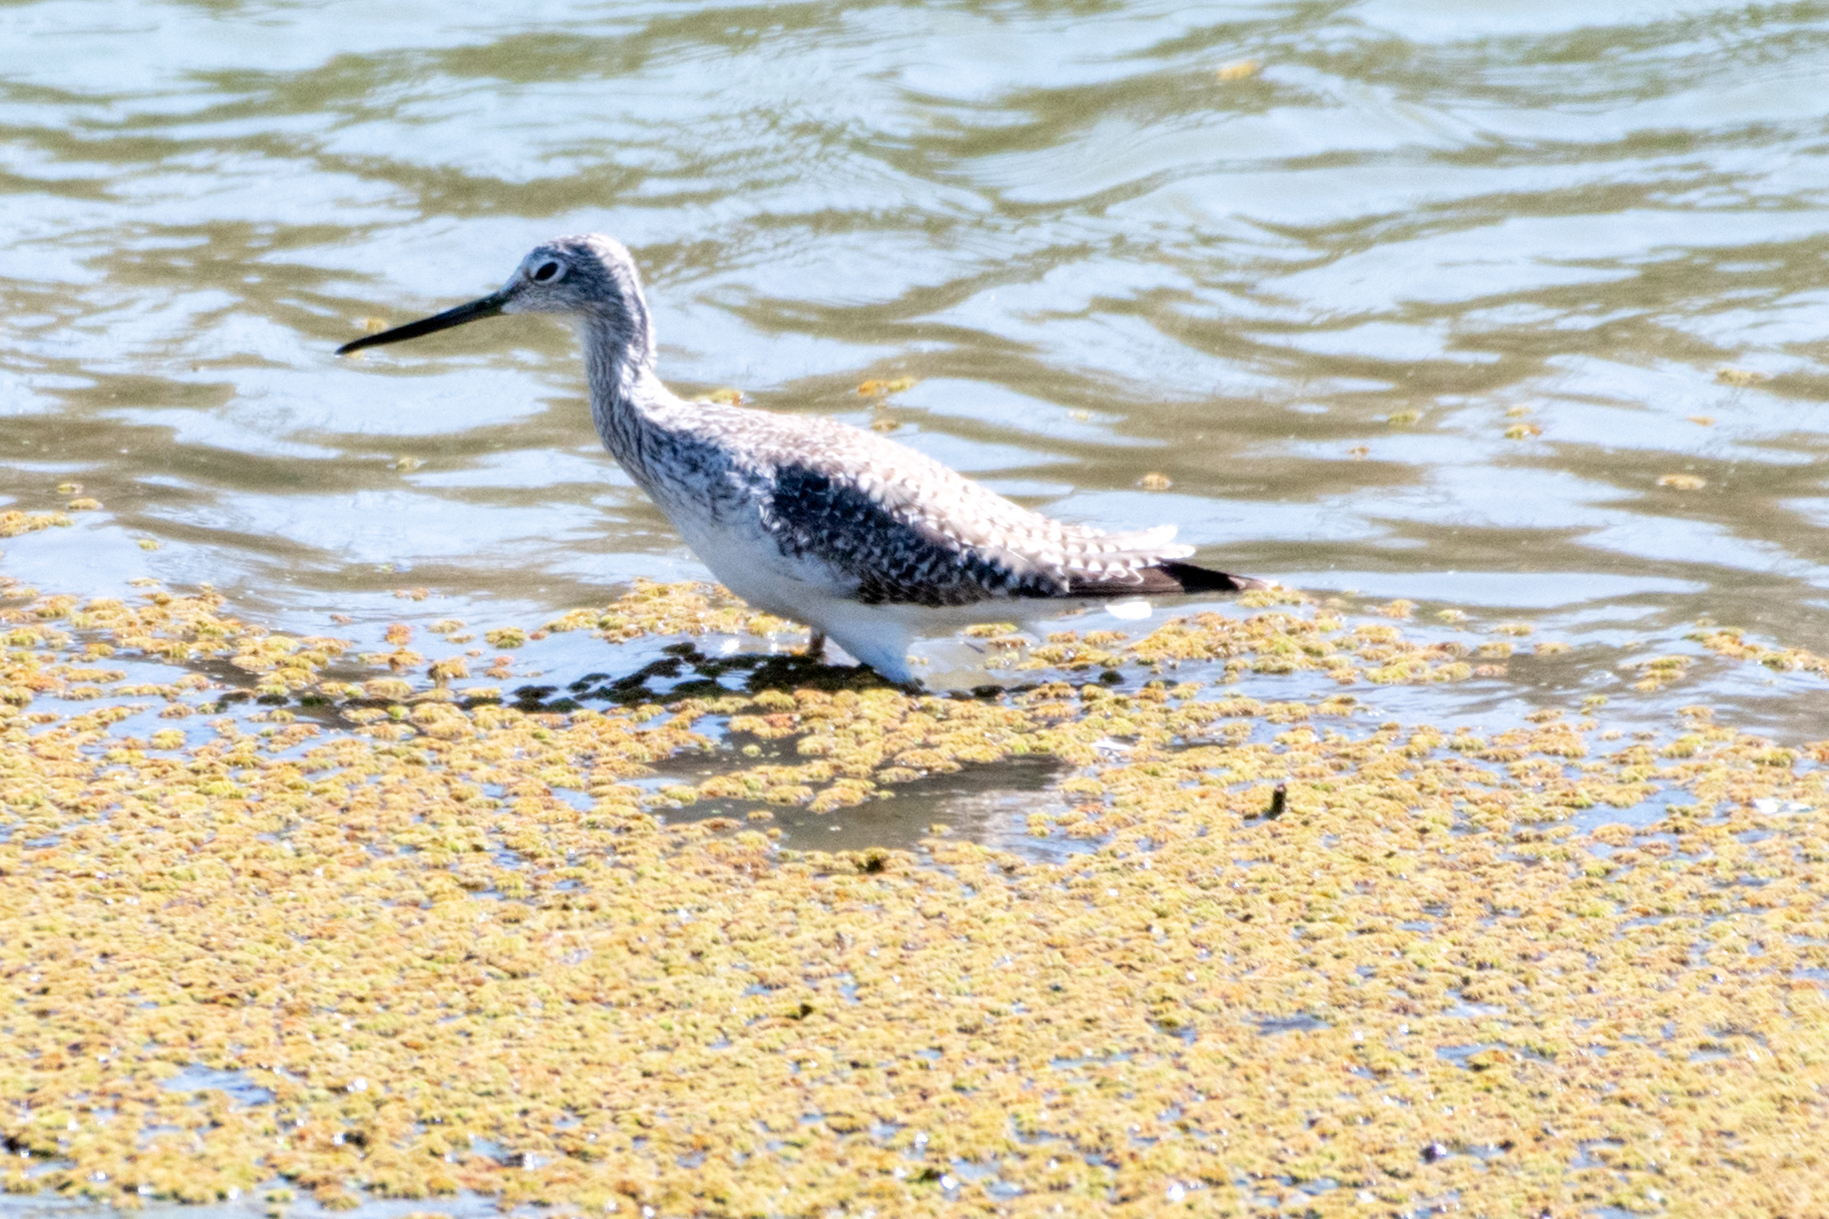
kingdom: Animalia
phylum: Chordata
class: Aves
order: Charadriiformes
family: Scolopacidae
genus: Tringa
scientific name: Tringa melanoleuca
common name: Greater yellowlegs
